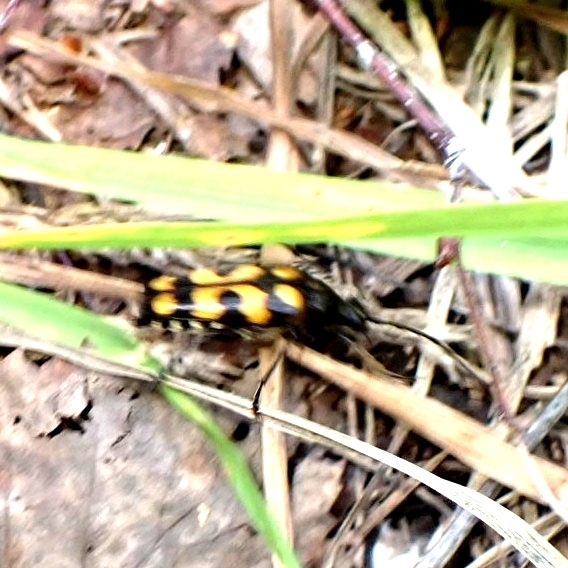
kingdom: Animalia
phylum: Arthropoda
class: Insecta
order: Coleoptera
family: Cerambycidae
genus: Leptura
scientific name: Leptura quadrifasciata
